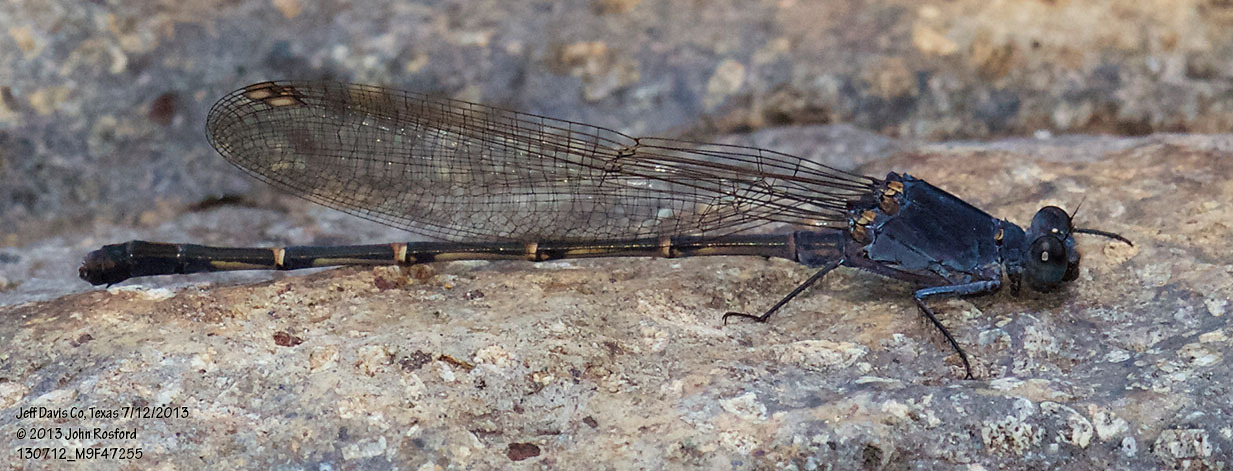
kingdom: Animalia
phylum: Arthropoda
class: Insecta
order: Odonata
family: Coenagrionidae
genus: Argia
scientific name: Argia lugens
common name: Sooty dancer
